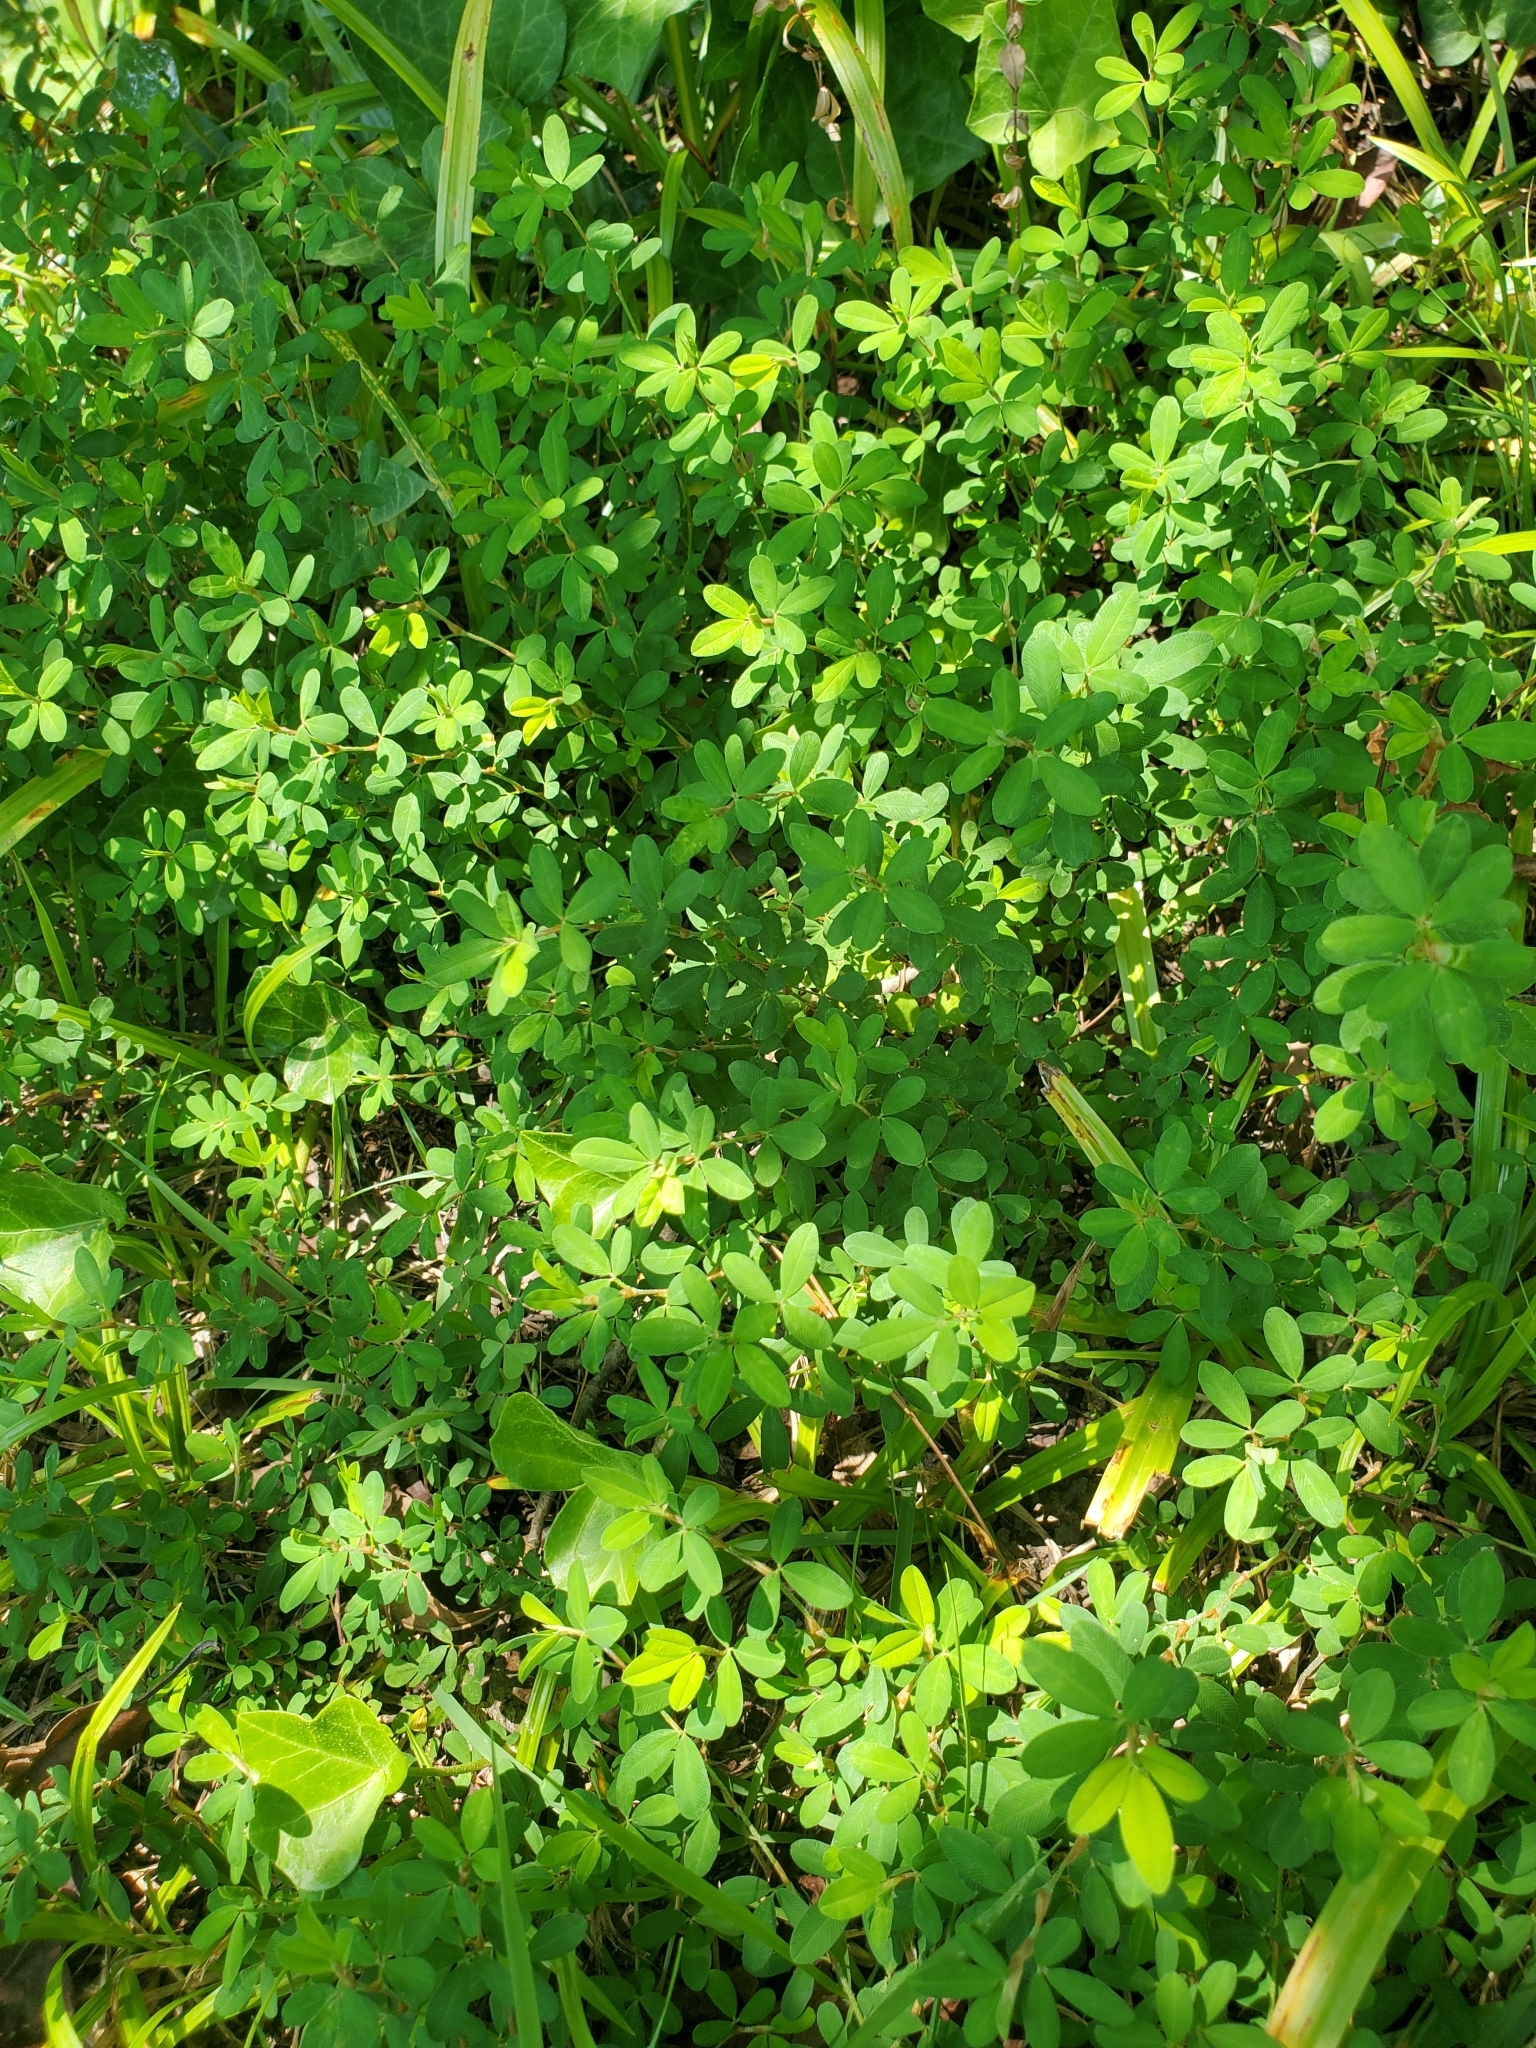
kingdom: Plantae
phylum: Tracheophyta
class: Magnoliopsida
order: Fabales
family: Fabaceae
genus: Kummerowia
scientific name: Kummerowia striata
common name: Japanese clover
